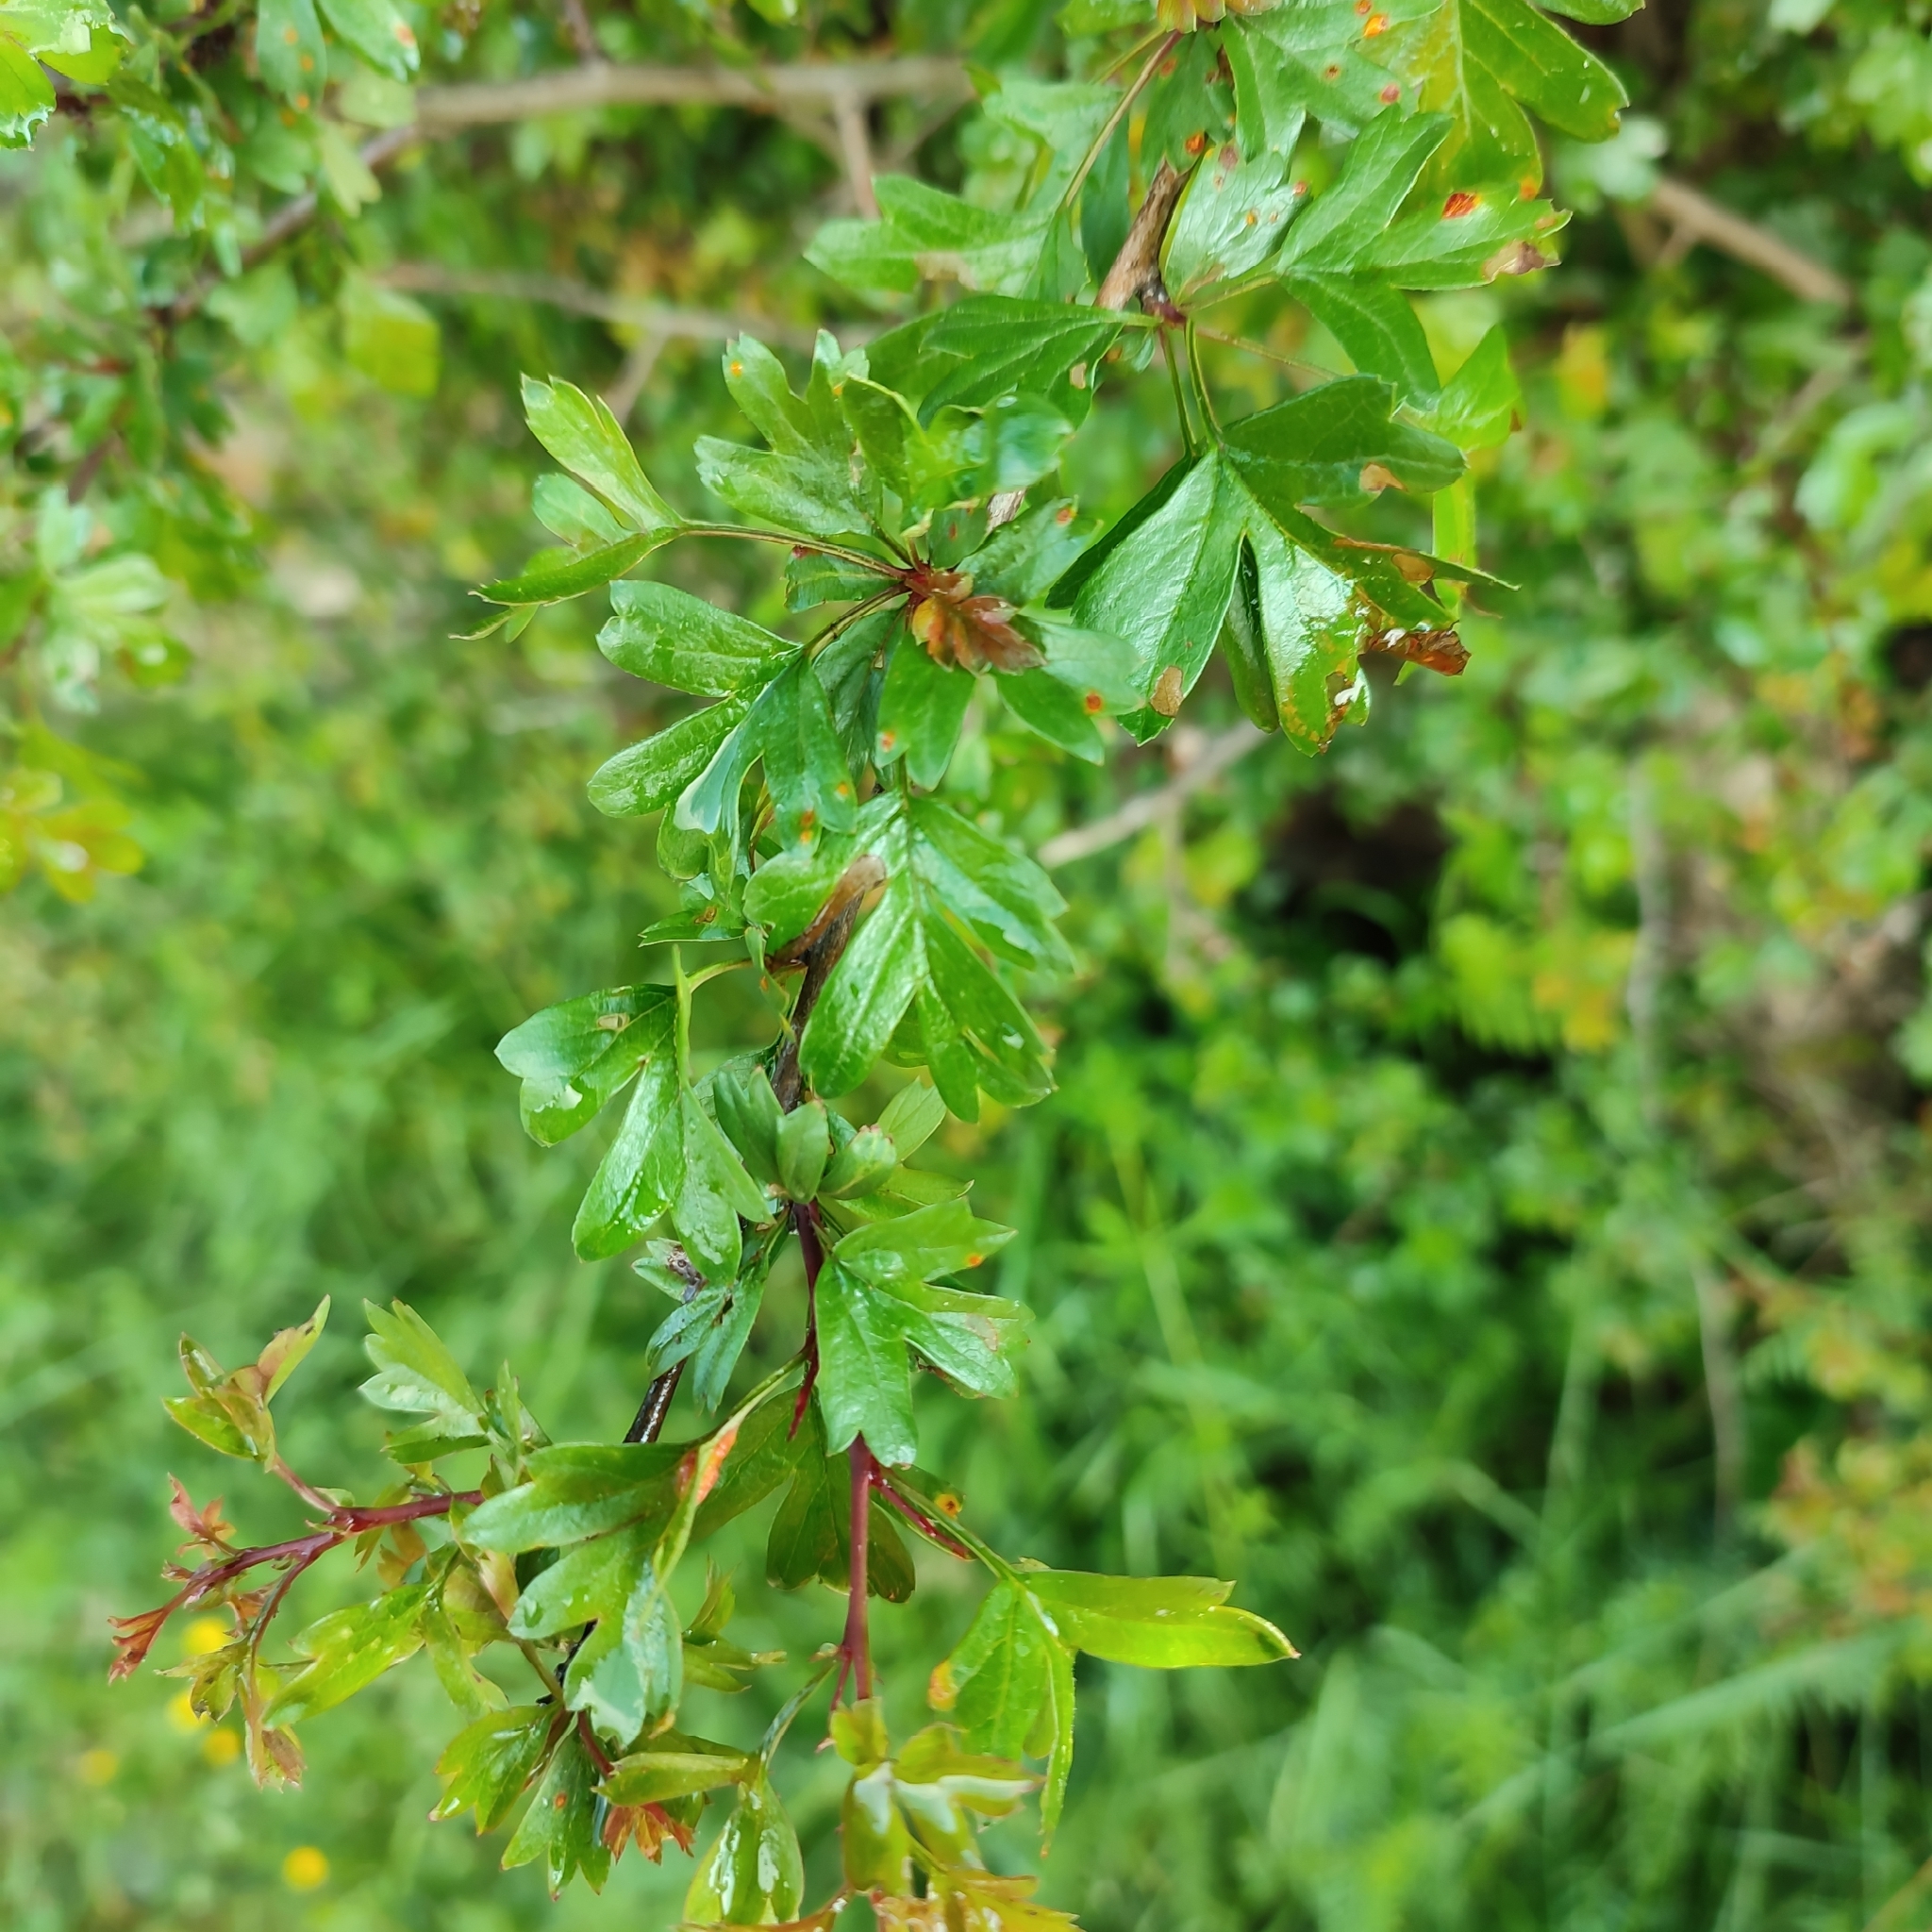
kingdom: Plantae
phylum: Tracheophyta
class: Magnoliopsida
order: Rosales
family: Rosaceae
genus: Crataegus
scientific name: Crataegus monogyna
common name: Hawthorn
